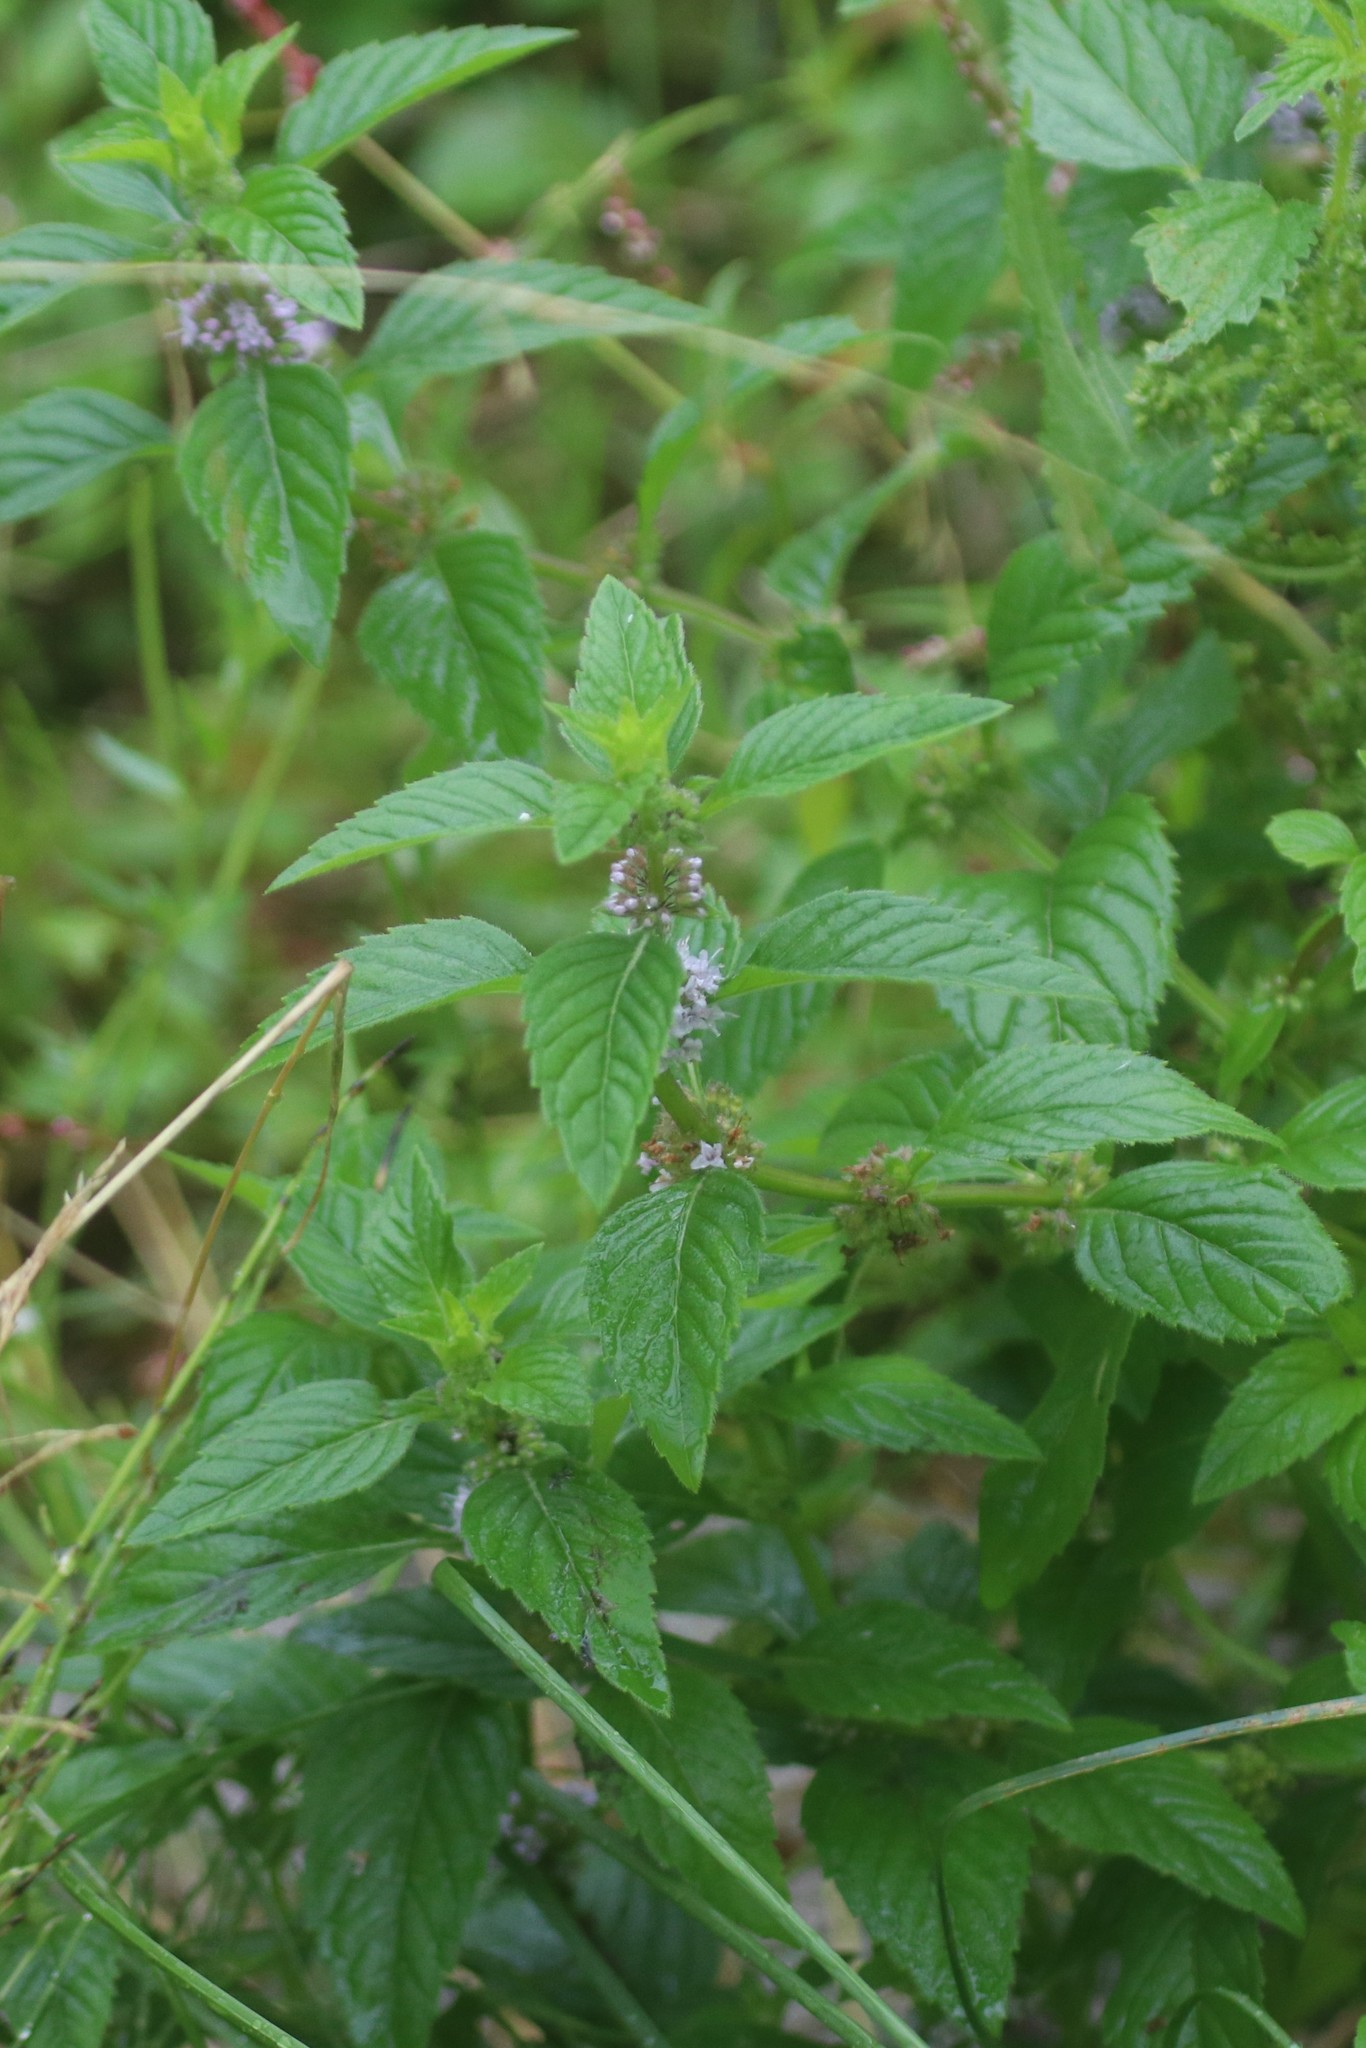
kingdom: Plantae
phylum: Tracheophyta
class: Magnoliopsida
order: Lamiales
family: Lamiaceae
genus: Mentha
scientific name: Mentha arvensis
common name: Corn mint
